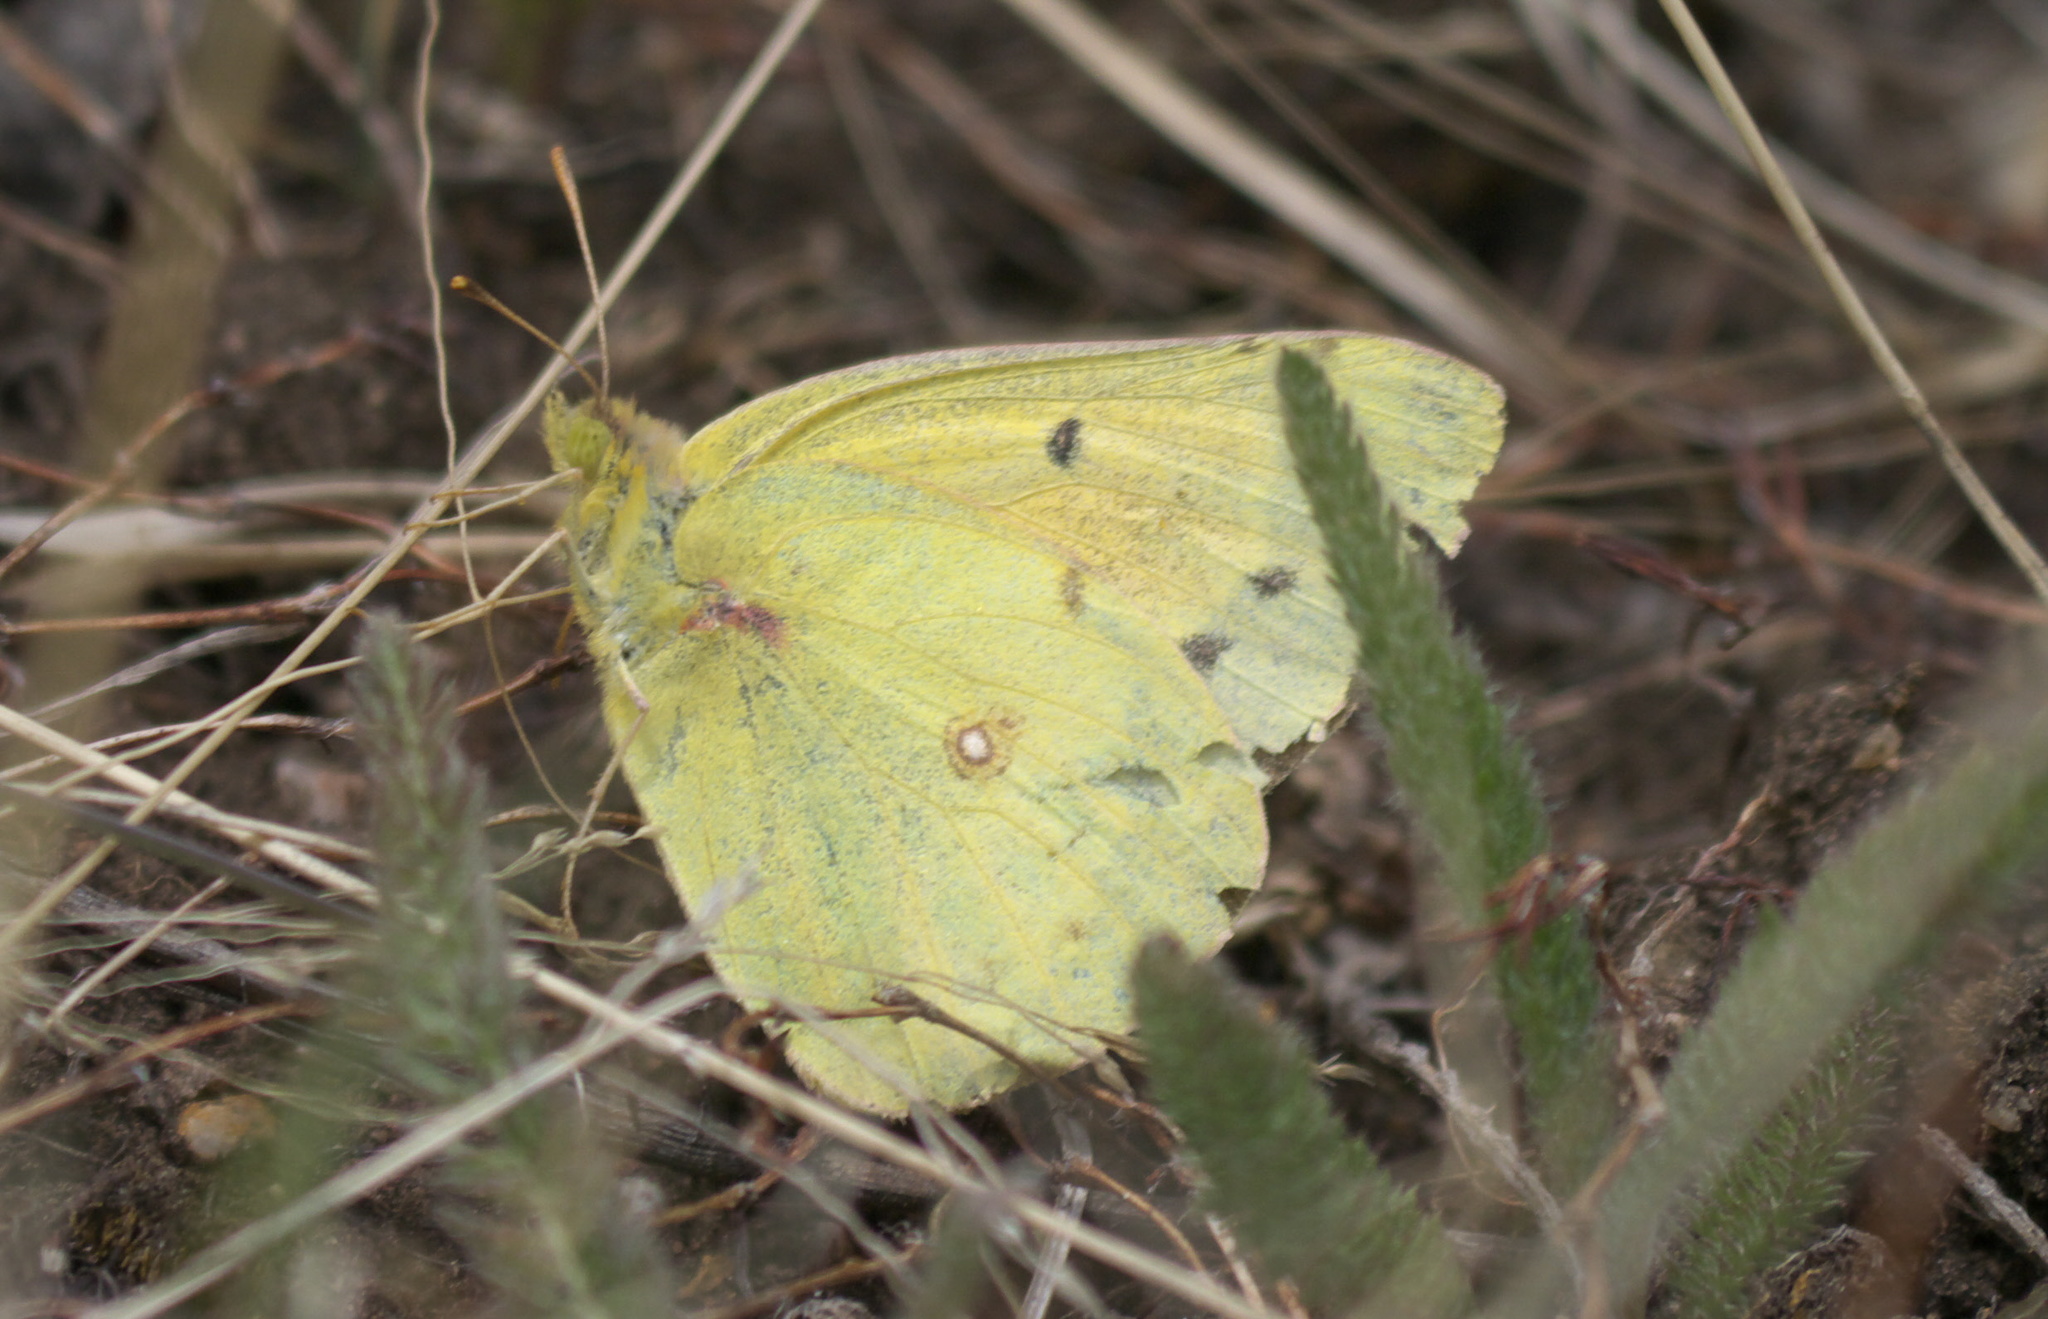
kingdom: Animalia
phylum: Arthropoda
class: Insecta
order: Lepidoptera
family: Pieridae
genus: Colias
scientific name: Colias eurytheme
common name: Alfalfa butterfly
